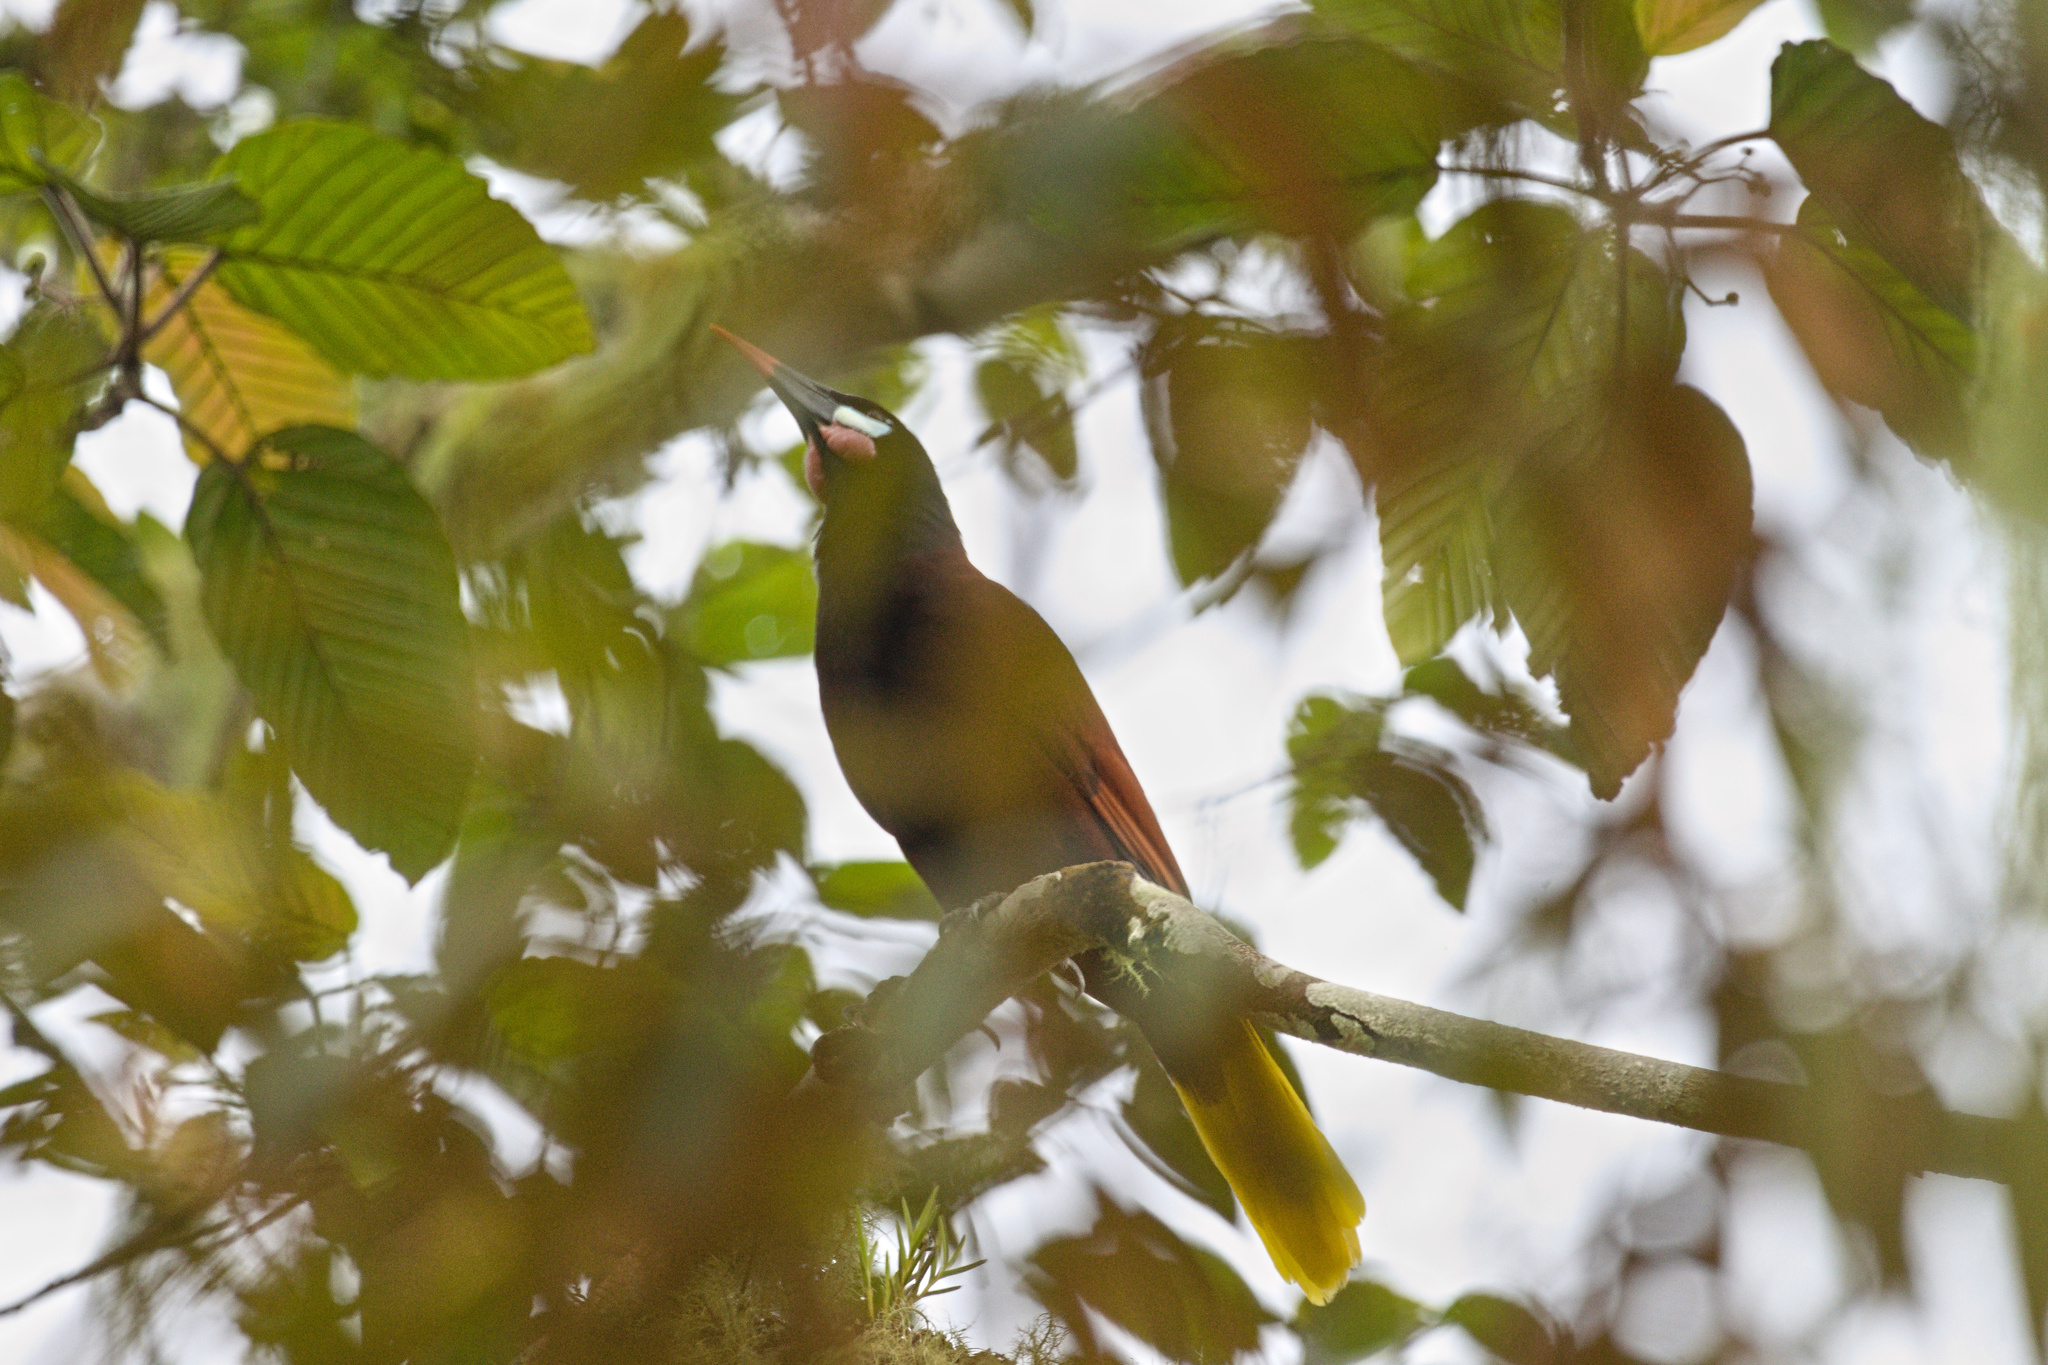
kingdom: Animalia
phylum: Chordata
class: Aves
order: Passeriformes
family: Icteridae
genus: Psarocolius
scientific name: Psarocolius montezuma
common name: Montezuma oropendola
